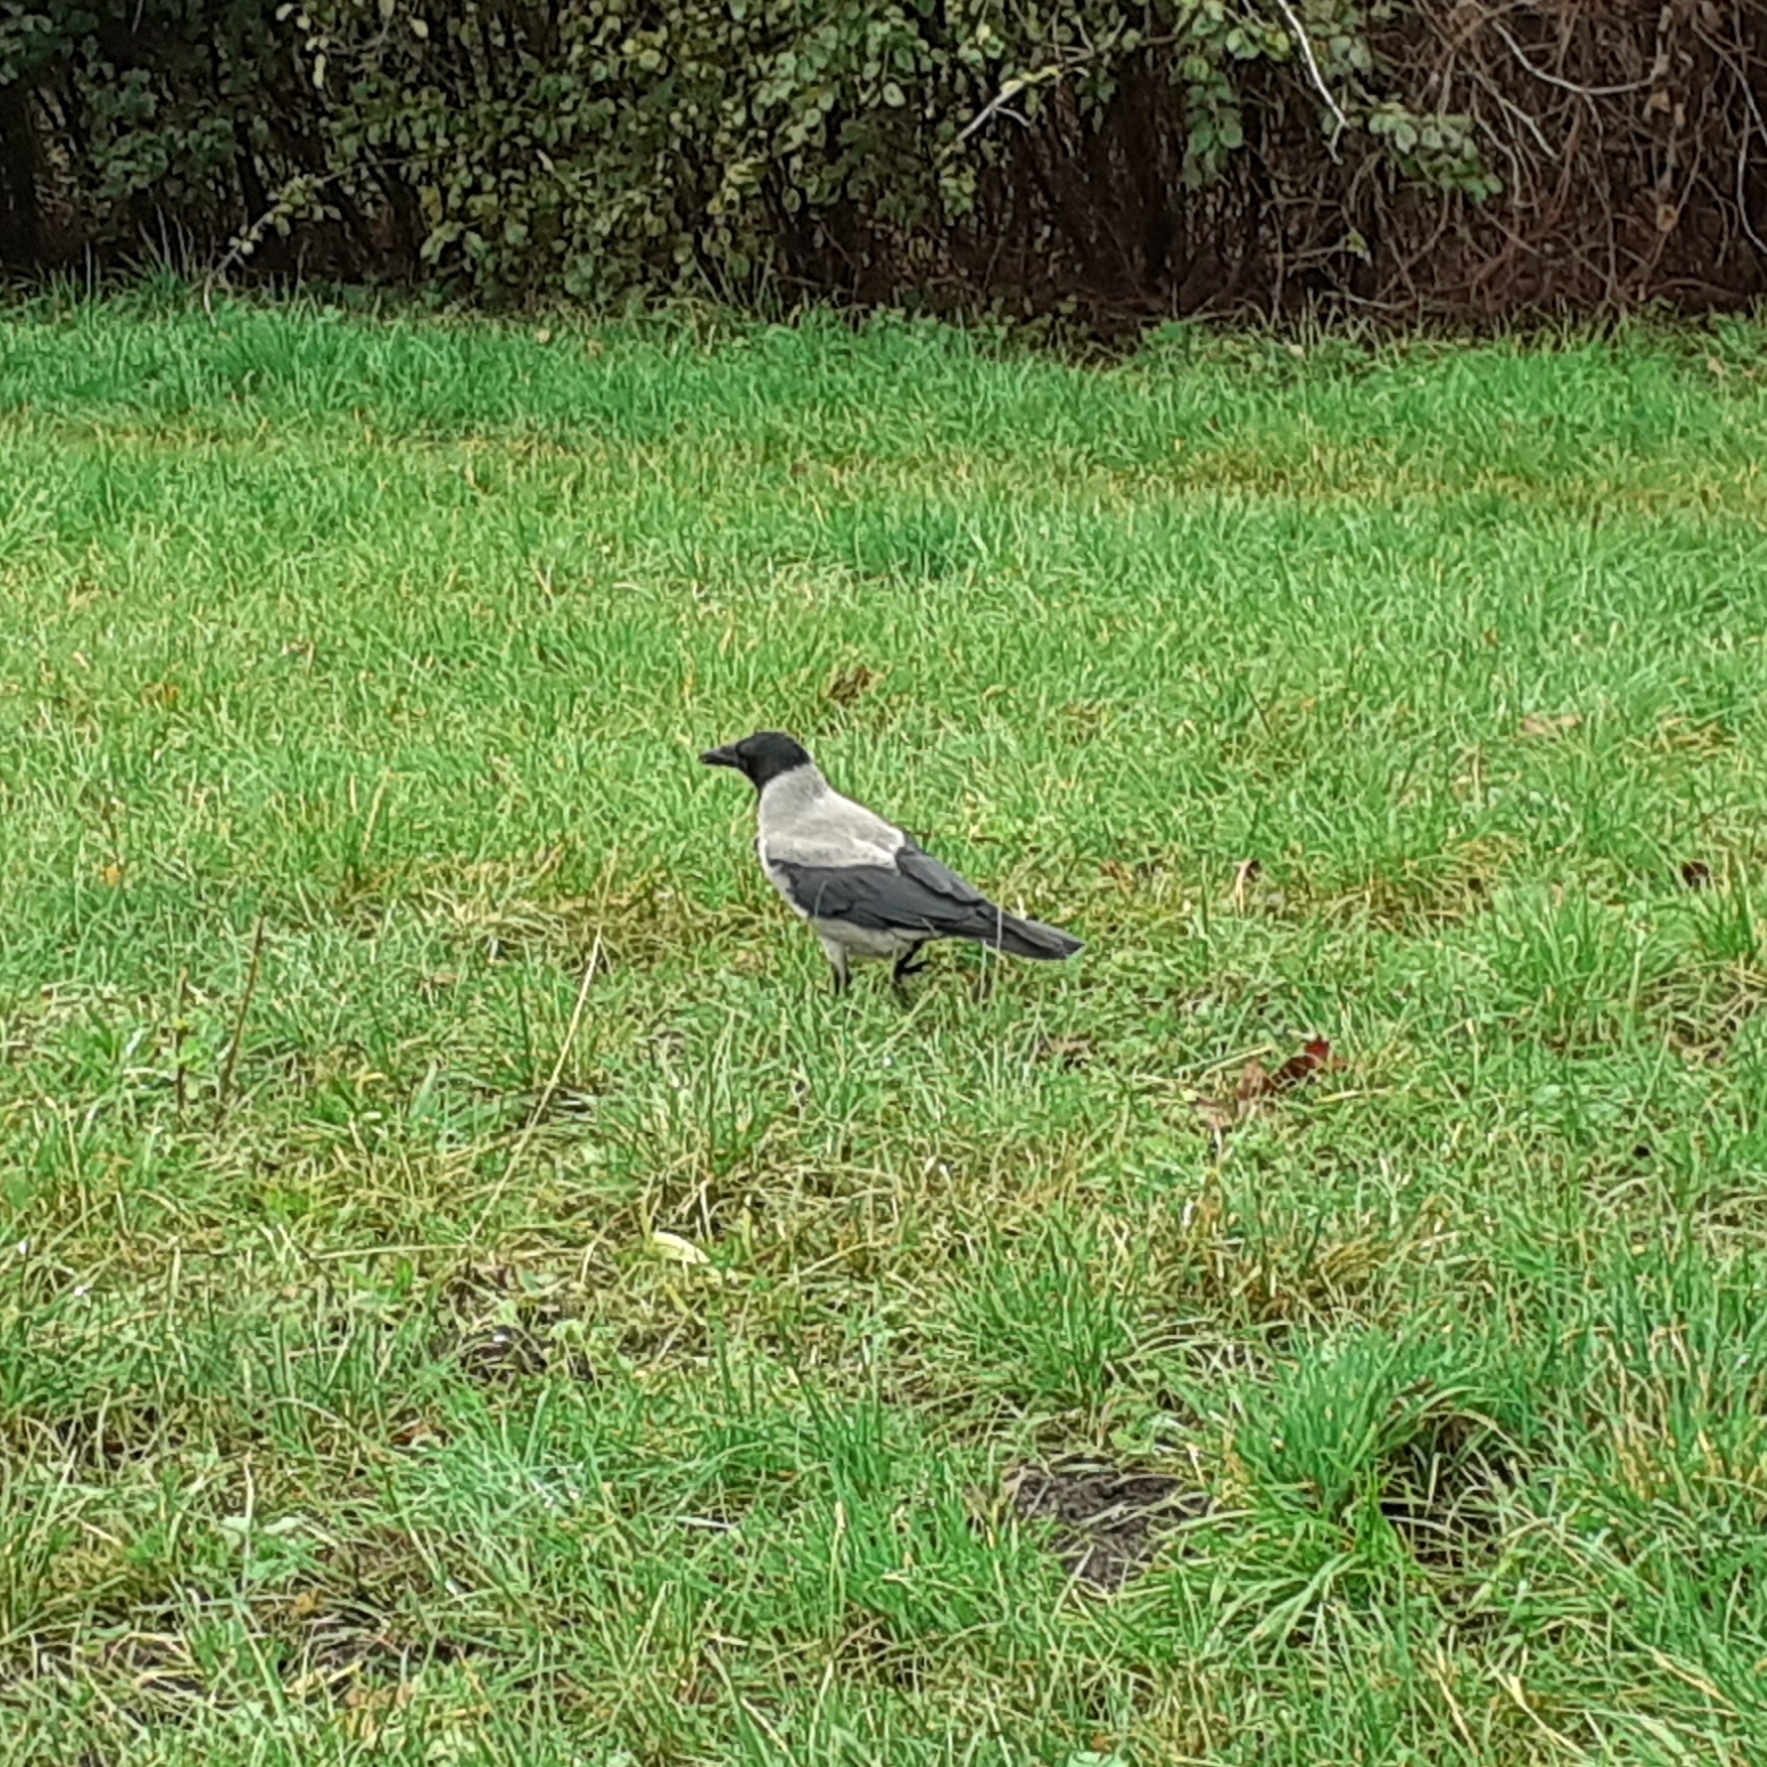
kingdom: Animalia
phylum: Chordata
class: Aves
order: Passeriformes
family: Corvidae
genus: Corvus
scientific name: Corvus cornix
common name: Hooded crow
